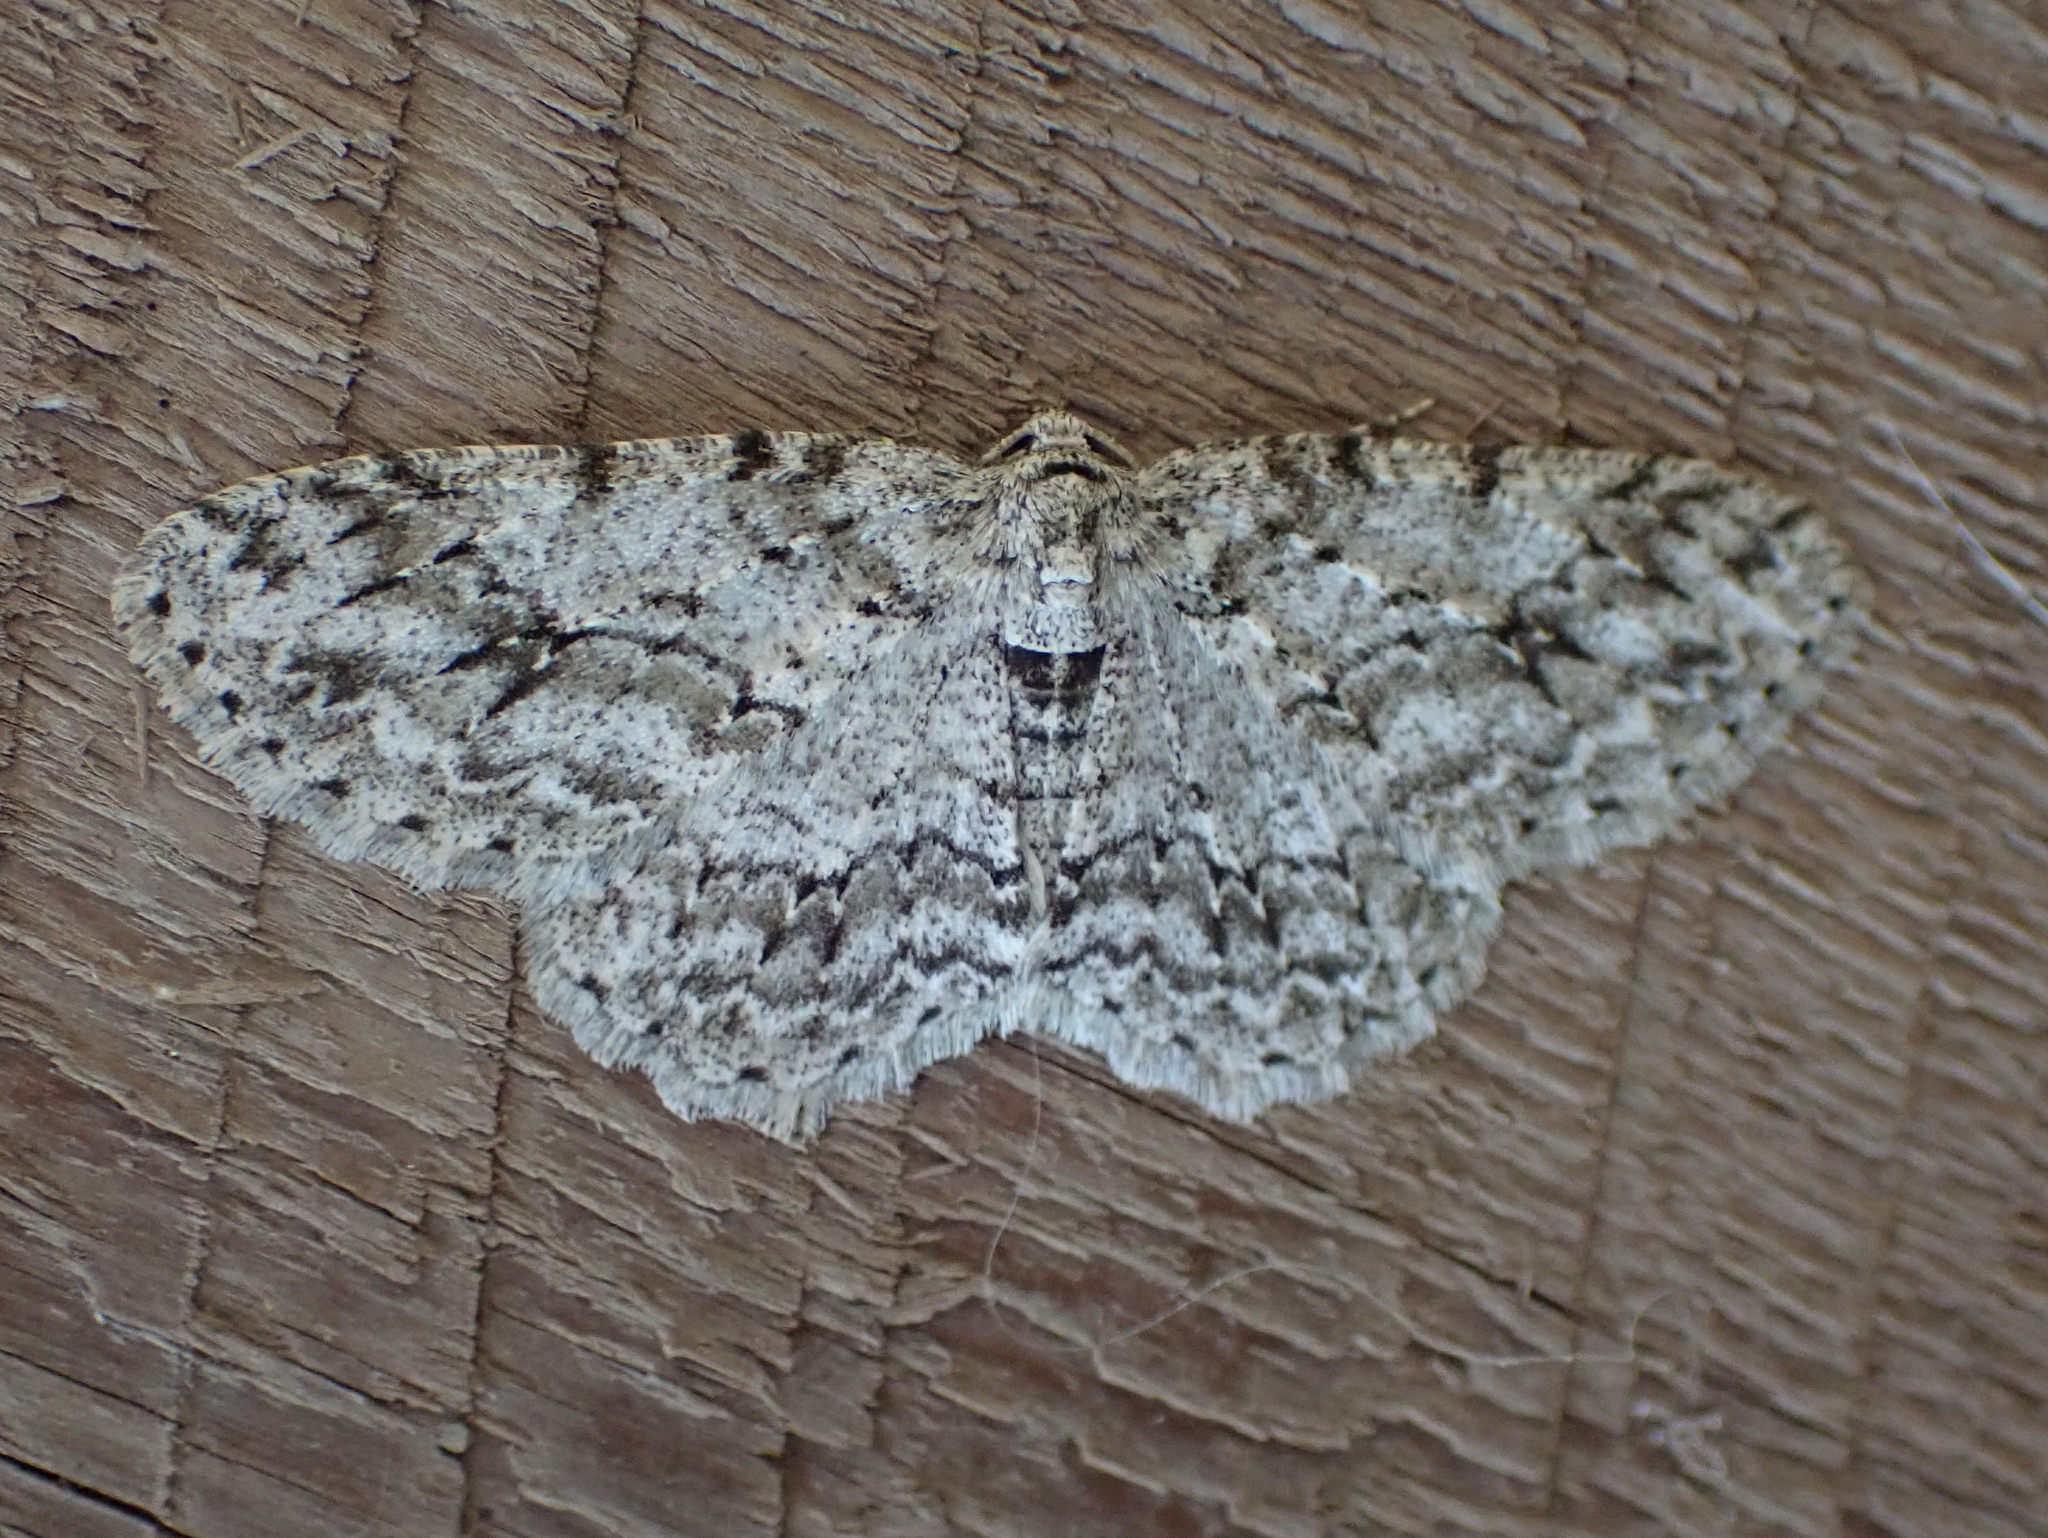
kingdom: Animalia
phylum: Arthropoda
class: Insecta
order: Lepidoptera
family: Geometridae
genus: Ectropis
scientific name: Ectropis crepuscularia
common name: Engrailed
